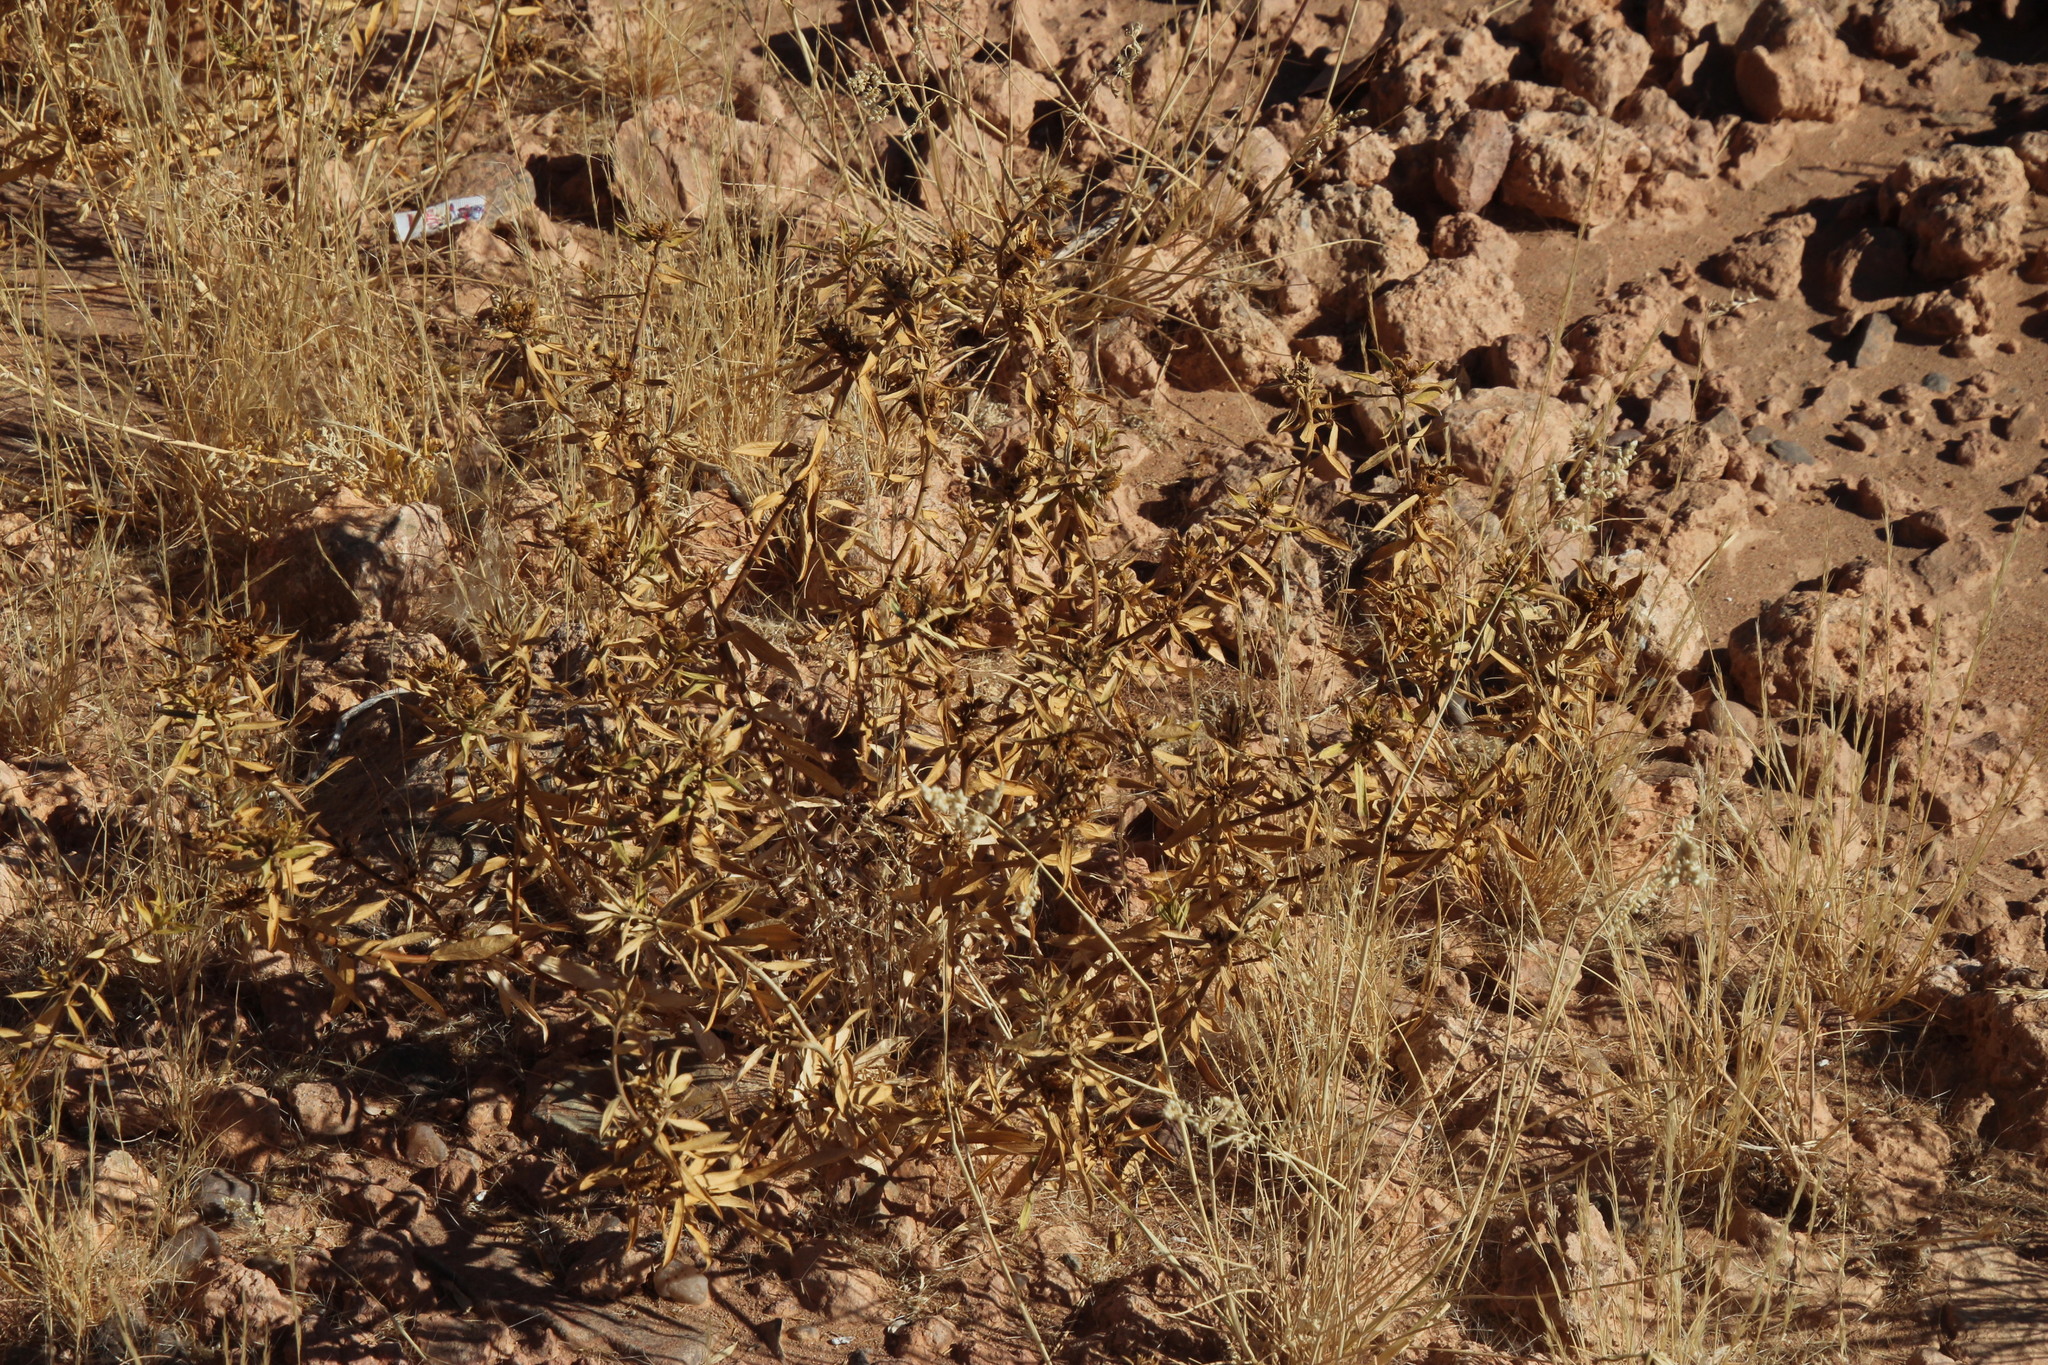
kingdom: Plantae
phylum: Tracheophyta
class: Magnoliopsida
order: Asterales
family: Asteraceae
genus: Geigeria
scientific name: Geigeria pectidea
